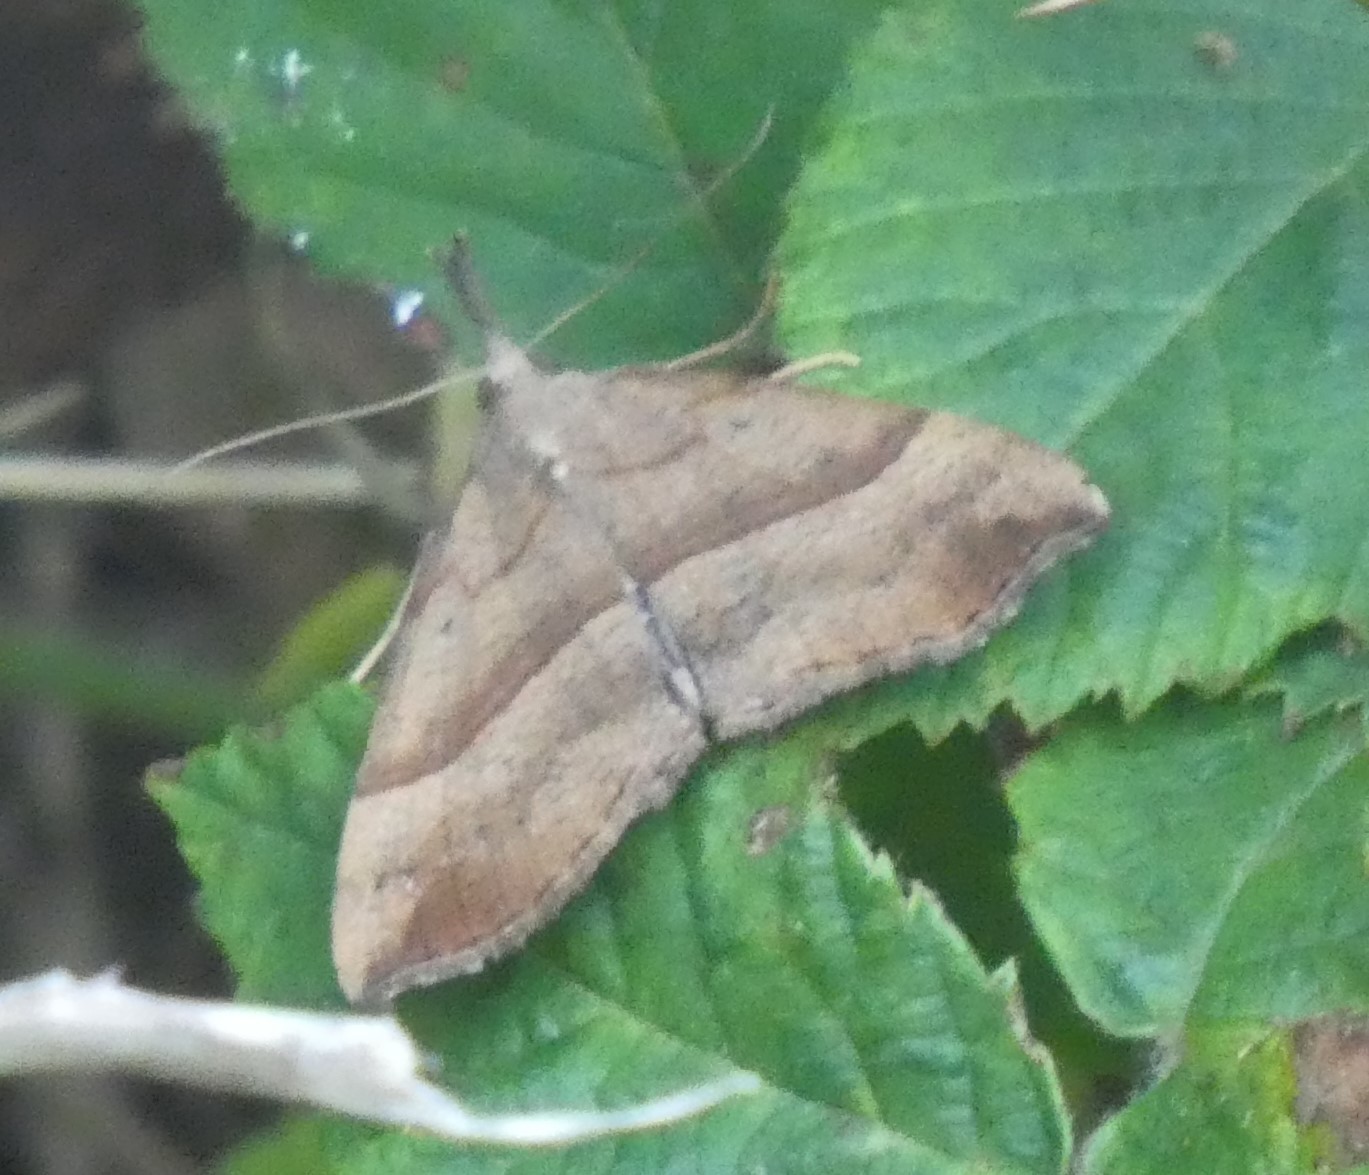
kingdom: Animalia
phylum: Arthropoda
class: Insecta
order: Lepidoptera
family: Erebidae
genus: Hypena
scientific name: Hypena proboscidalis
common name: Snout
